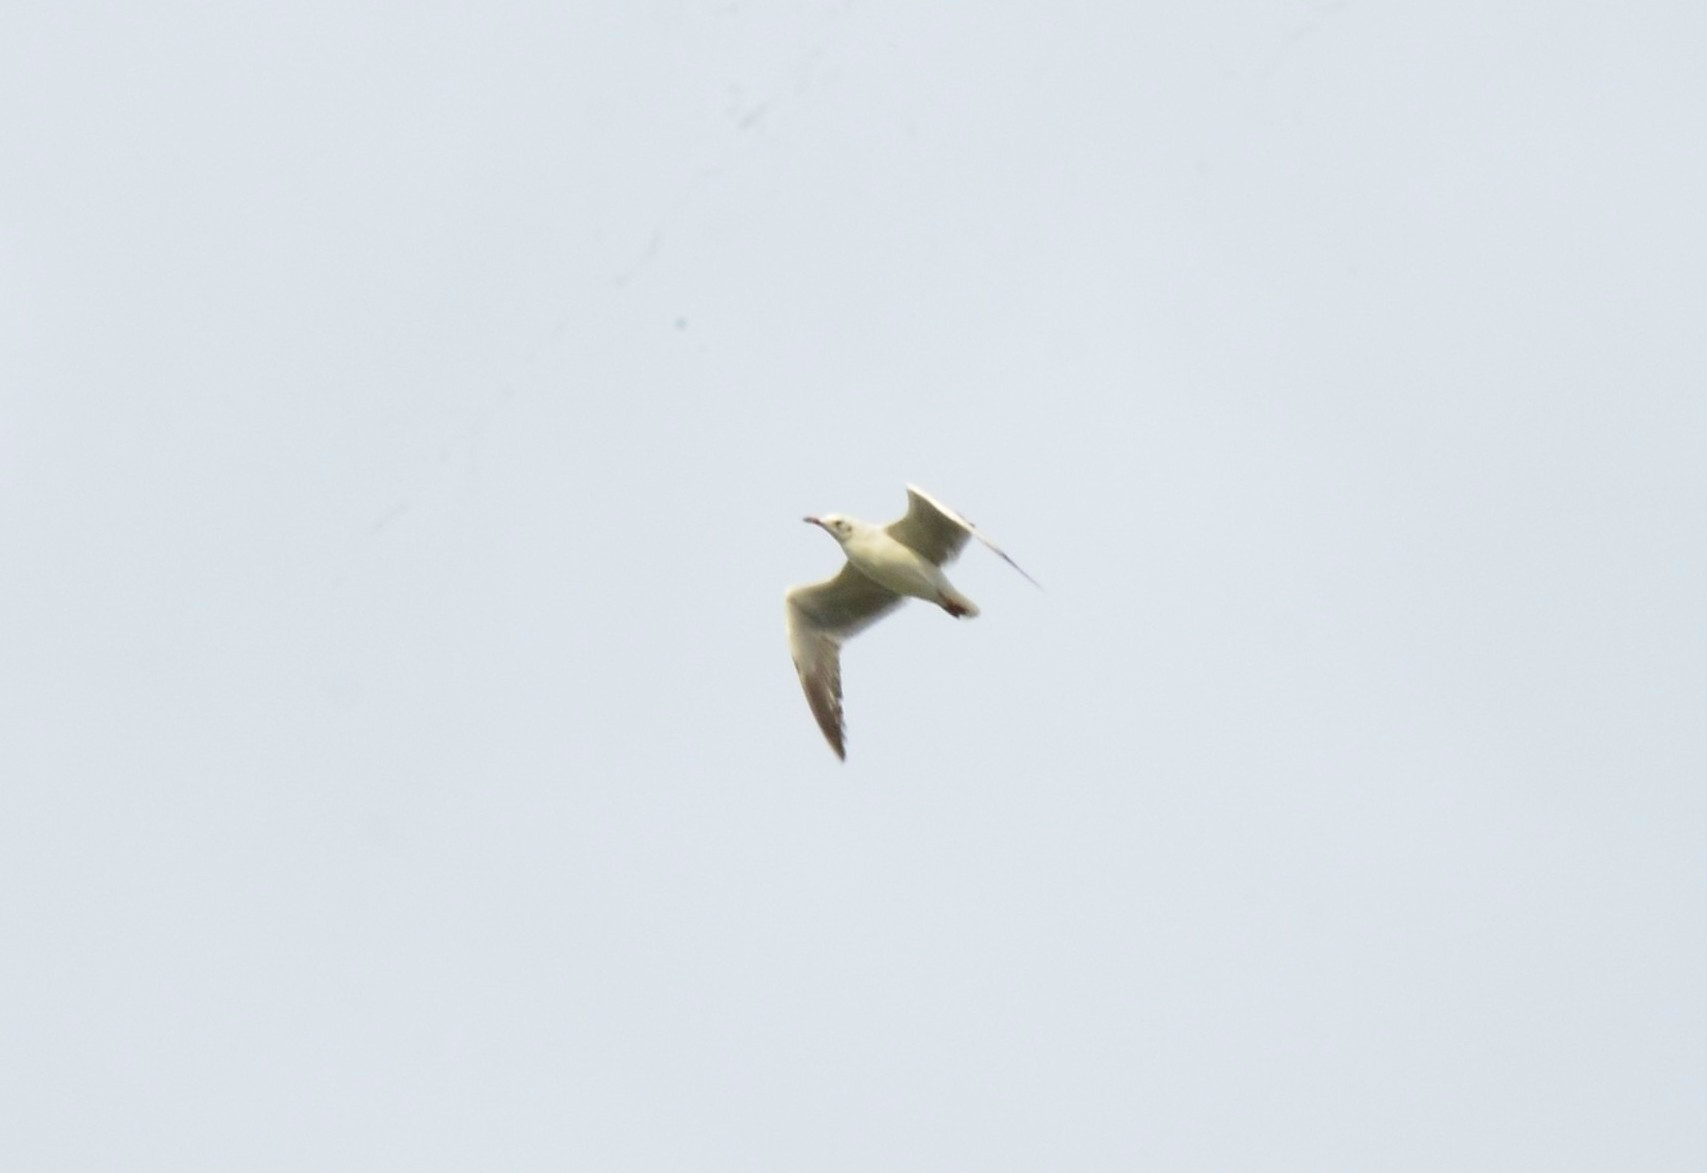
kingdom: Animalia
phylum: Chordata
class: Aves
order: Charadriiformes
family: Laridae
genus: Chroicocephalus
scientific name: Chroicocephalus brunnicephalus
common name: Brown-headed gull
